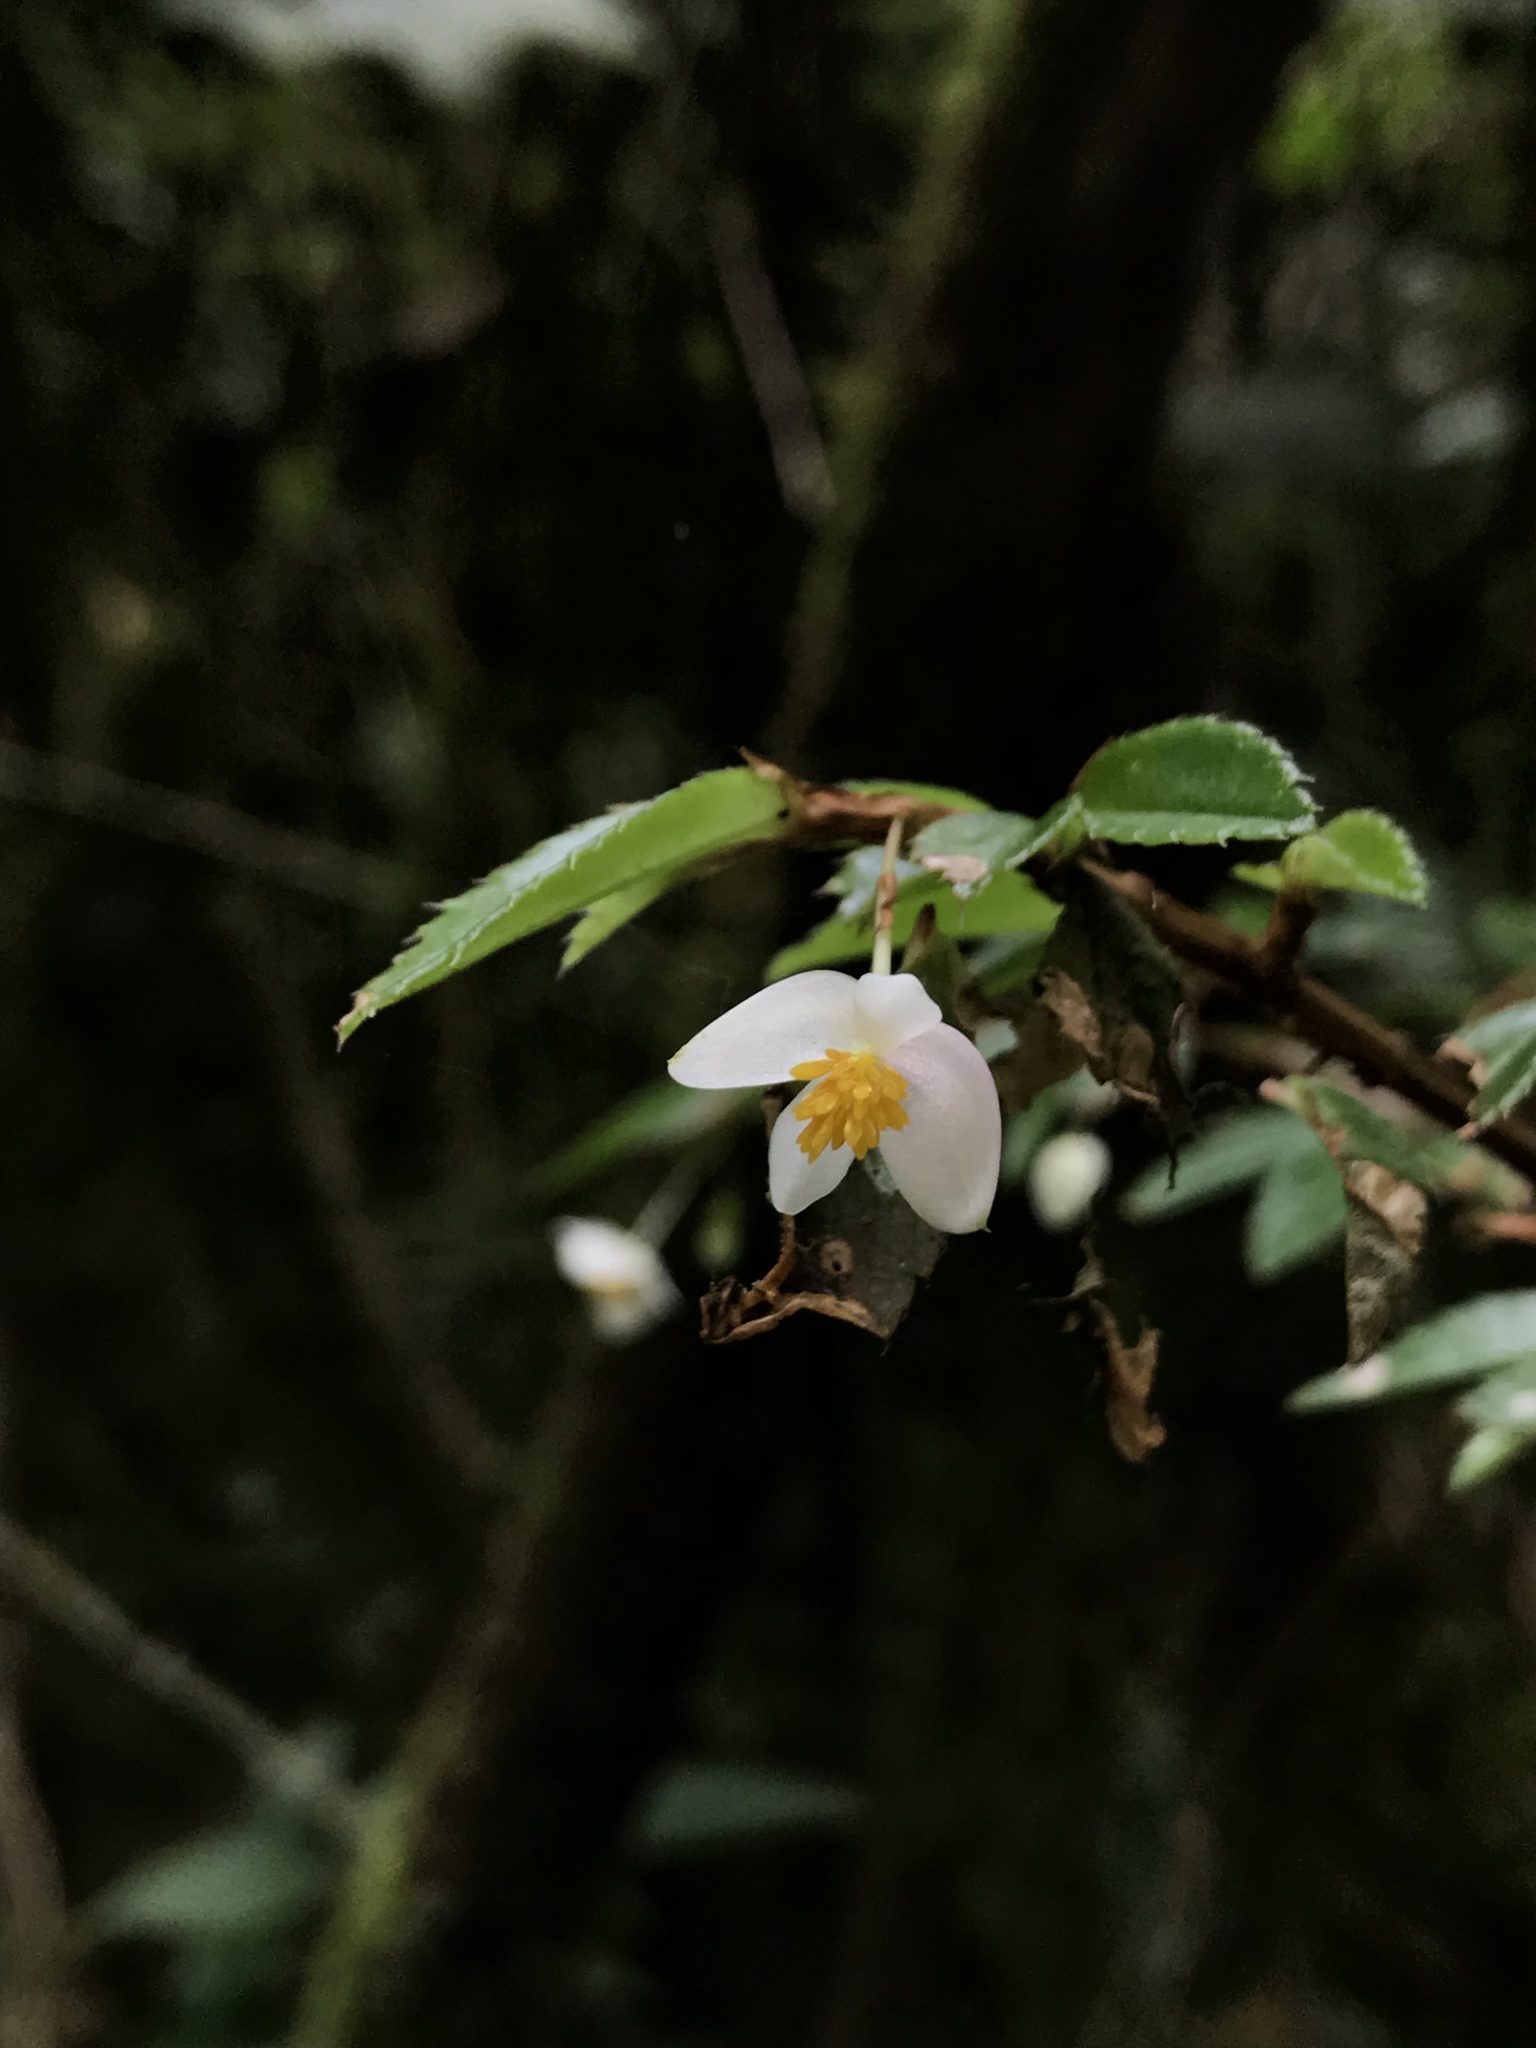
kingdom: Plantae
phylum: Tracheophyta
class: Magnoliopsida
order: Cucurbitales
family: Begoniaceae
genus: Begonia
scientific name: Begonia foliosa
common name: Fern begonia
